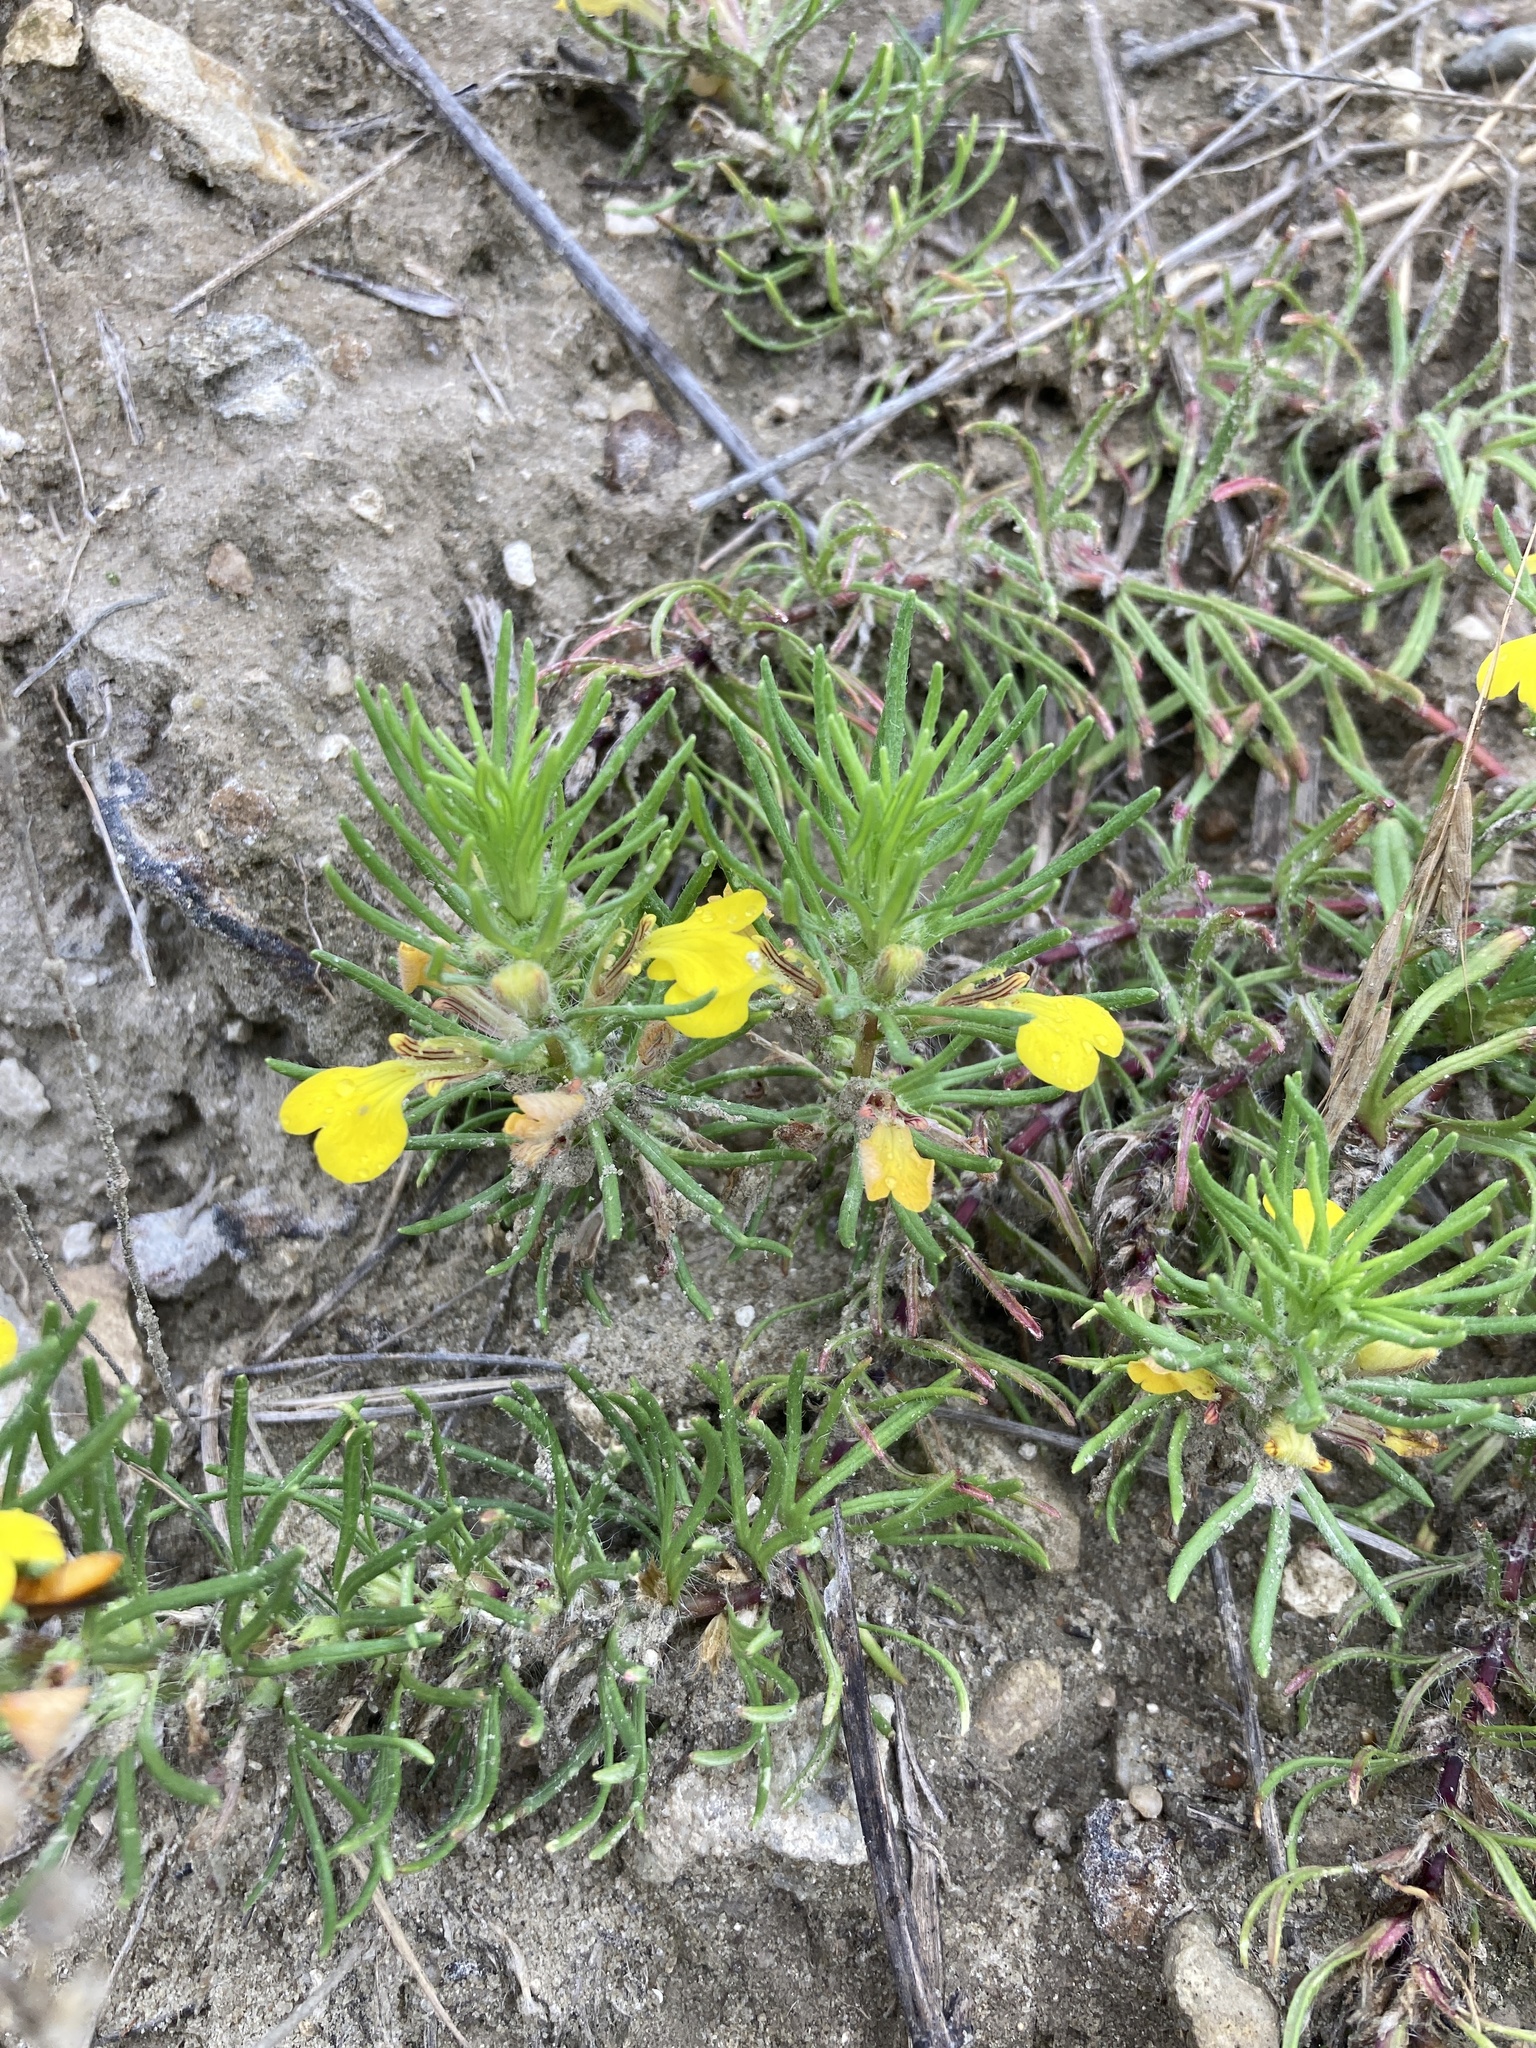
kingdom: Plantae
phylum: Tracheophyta
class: Magnoliopsida
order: Lamiales
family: Lamiaceae
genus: Ajuga
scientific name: Ajuga chamaepitys
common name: Ground-pine
